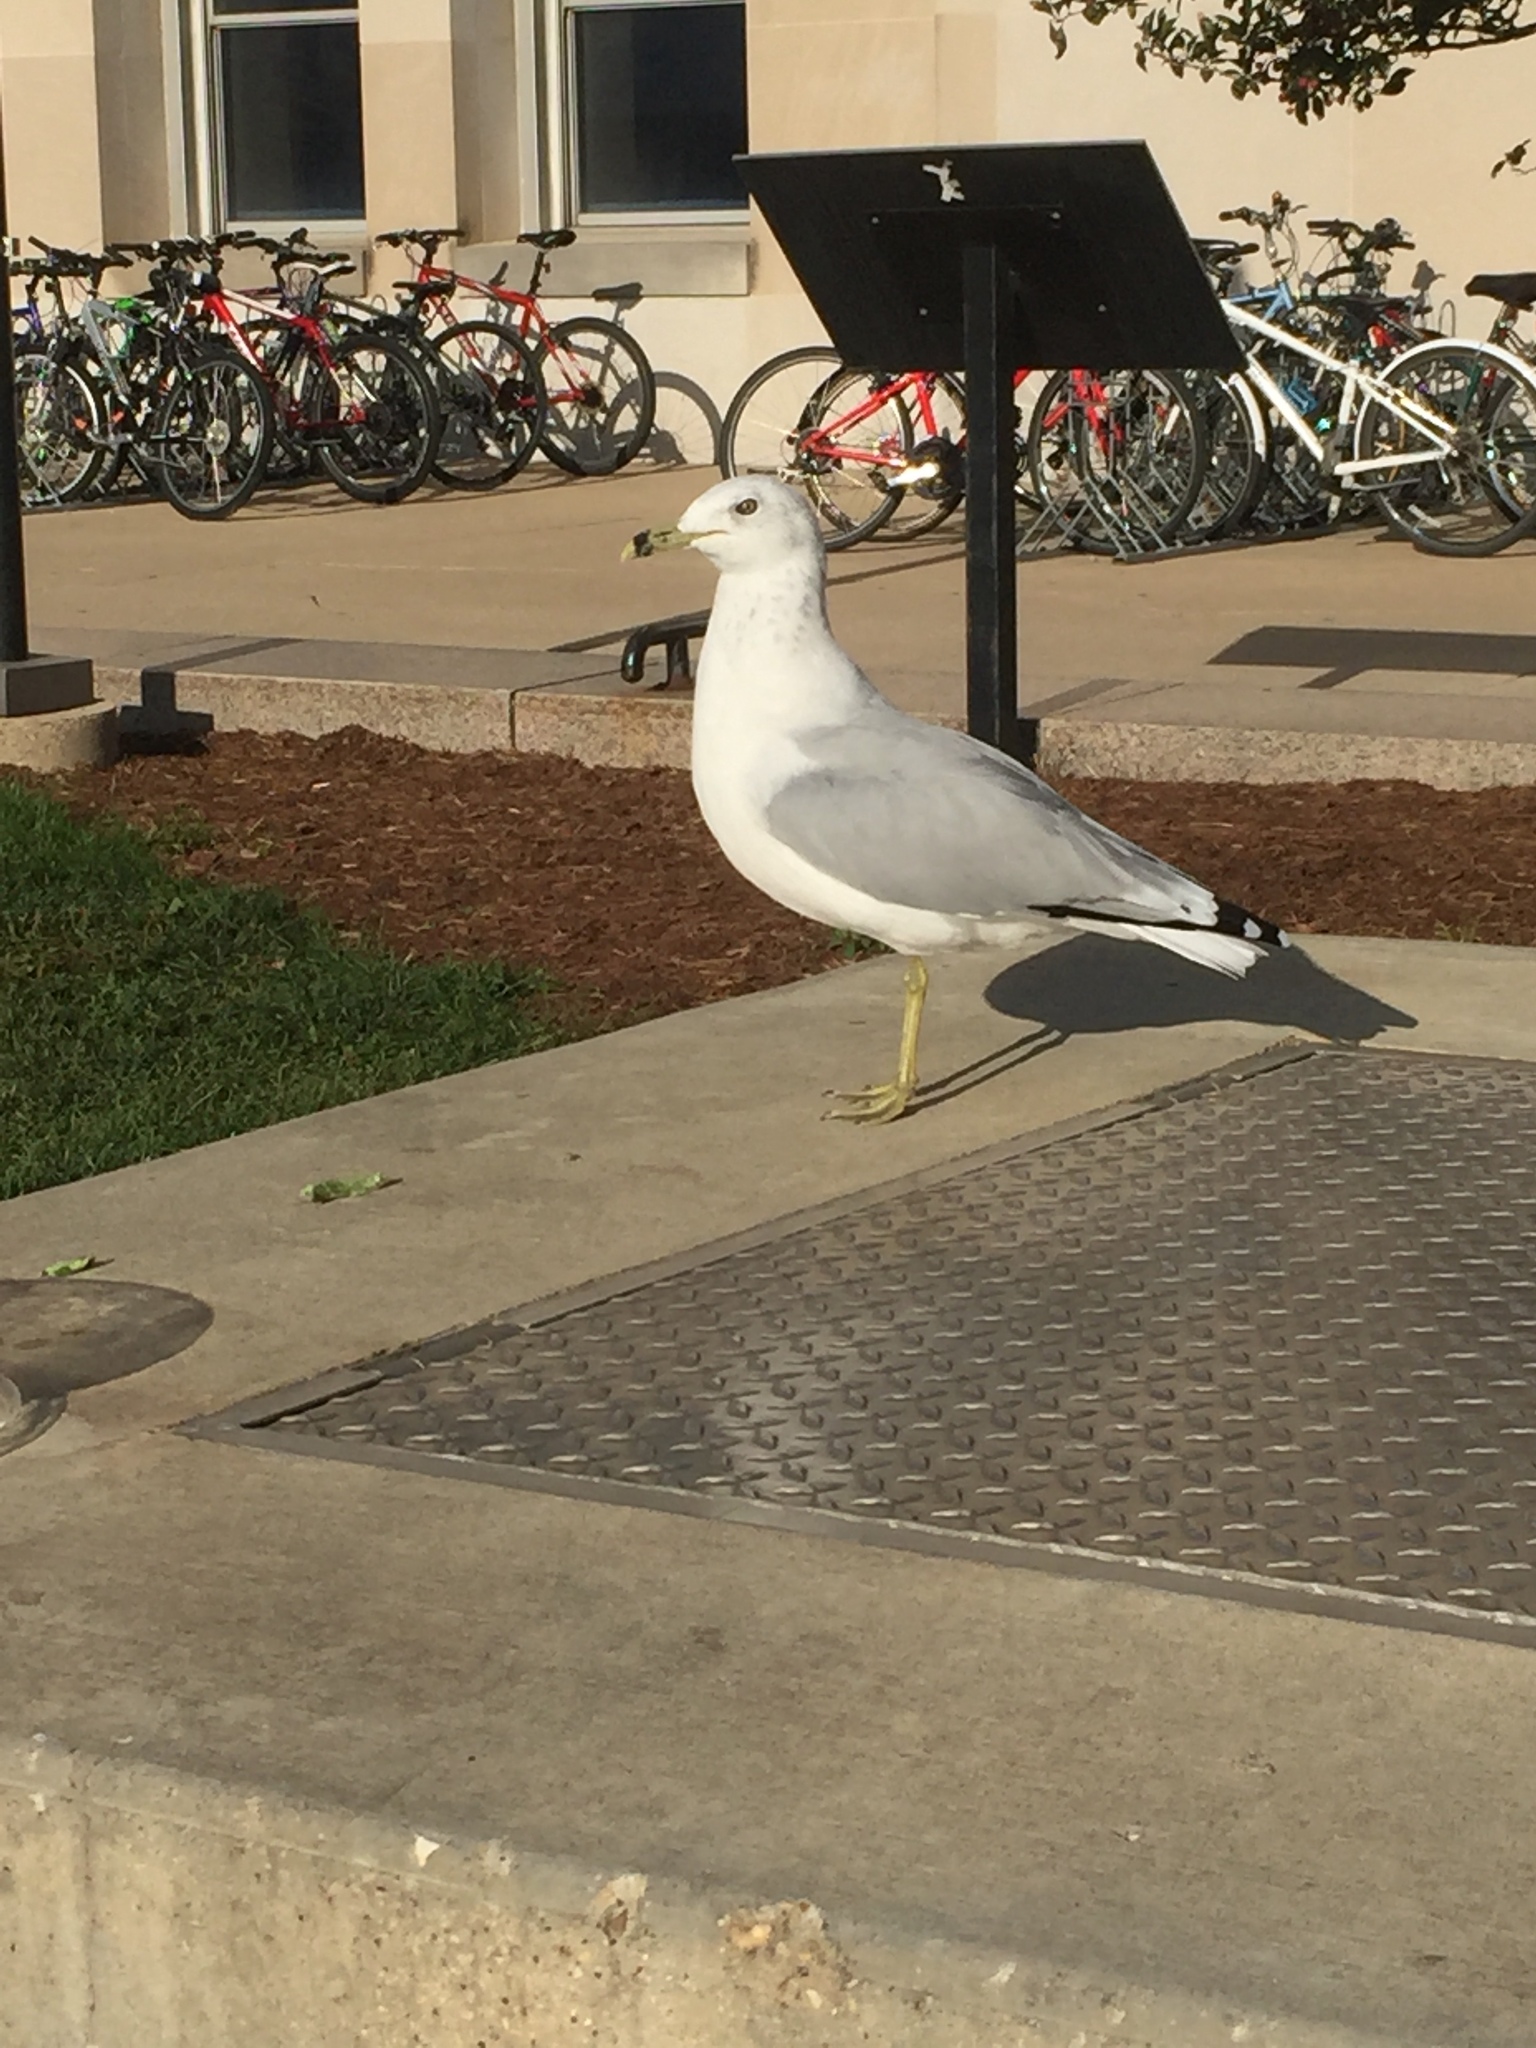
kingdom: Animalia
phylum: Chordata
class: Aves
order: Charadriiformes
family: Laridae
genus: Larus
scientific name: Larus delawarensis
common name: Ring-billed gull
